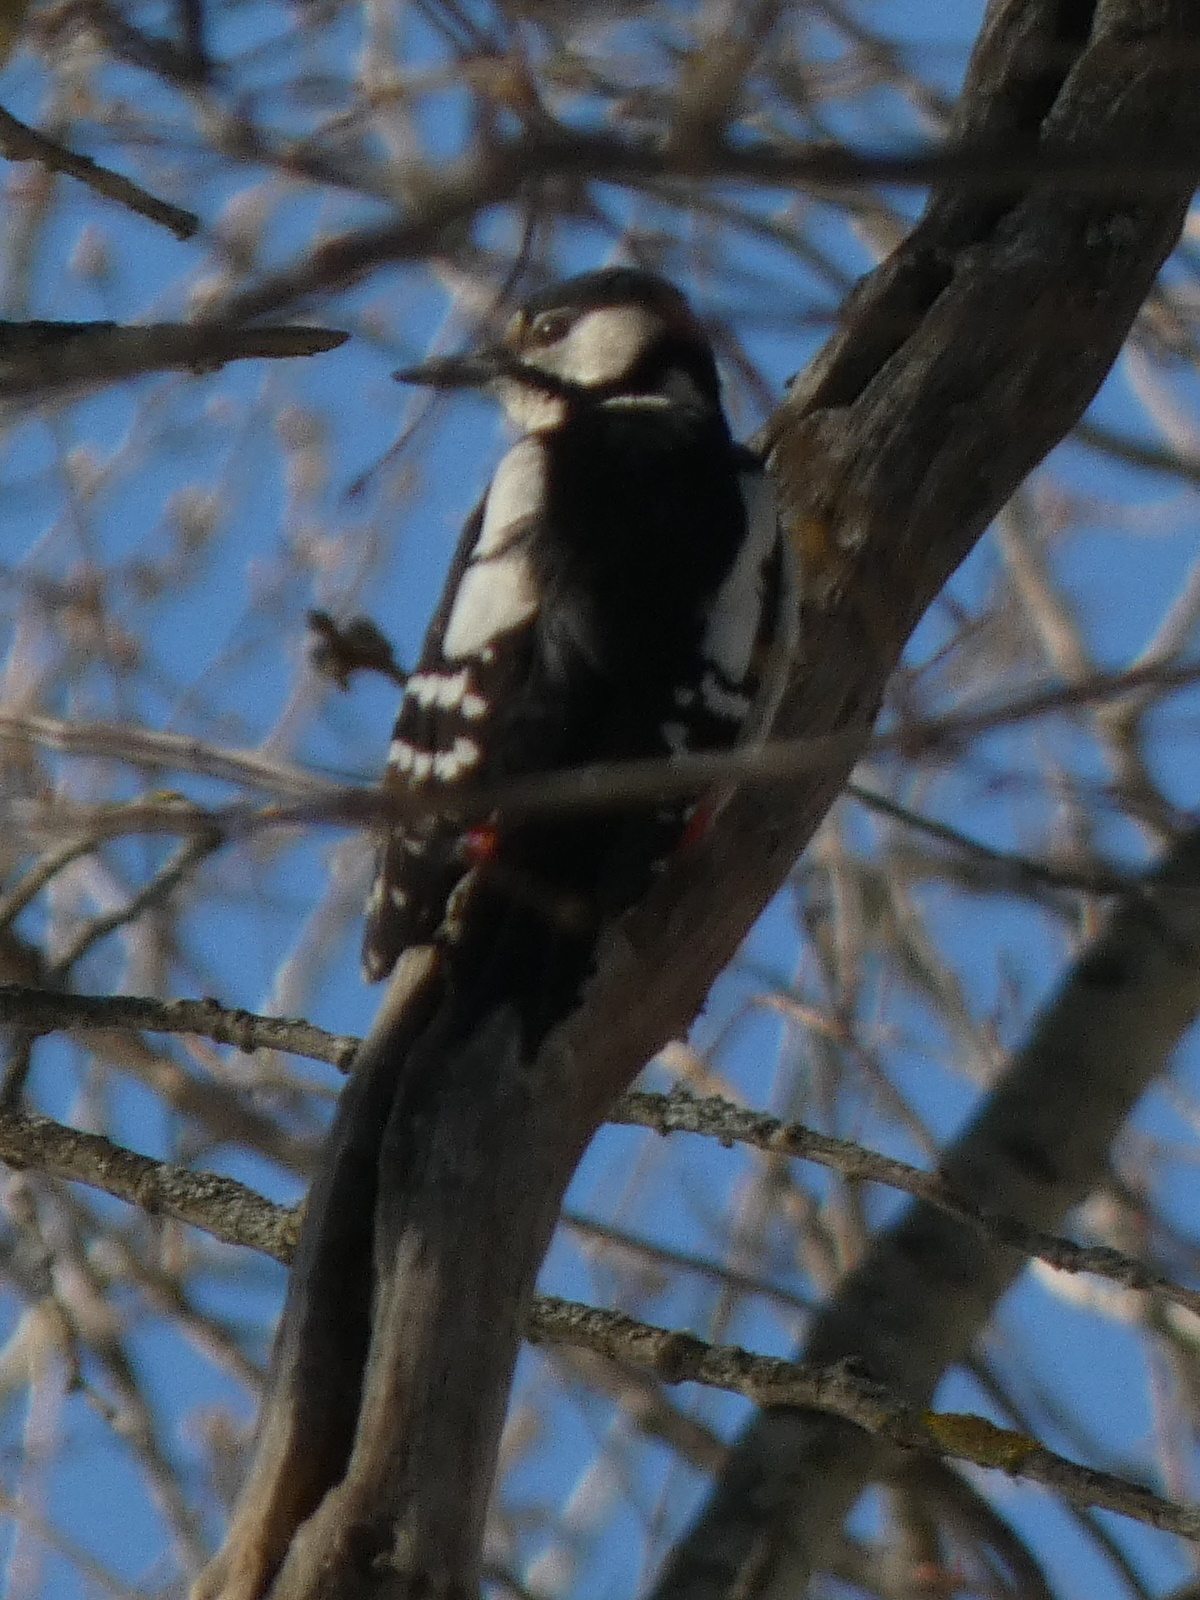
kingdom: Animalia
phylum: Chordata
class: Aves
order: Piciformes
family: Picidae
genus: Dendrocopos
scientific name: Dendrocopos major
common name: Great spotted woodpecker
